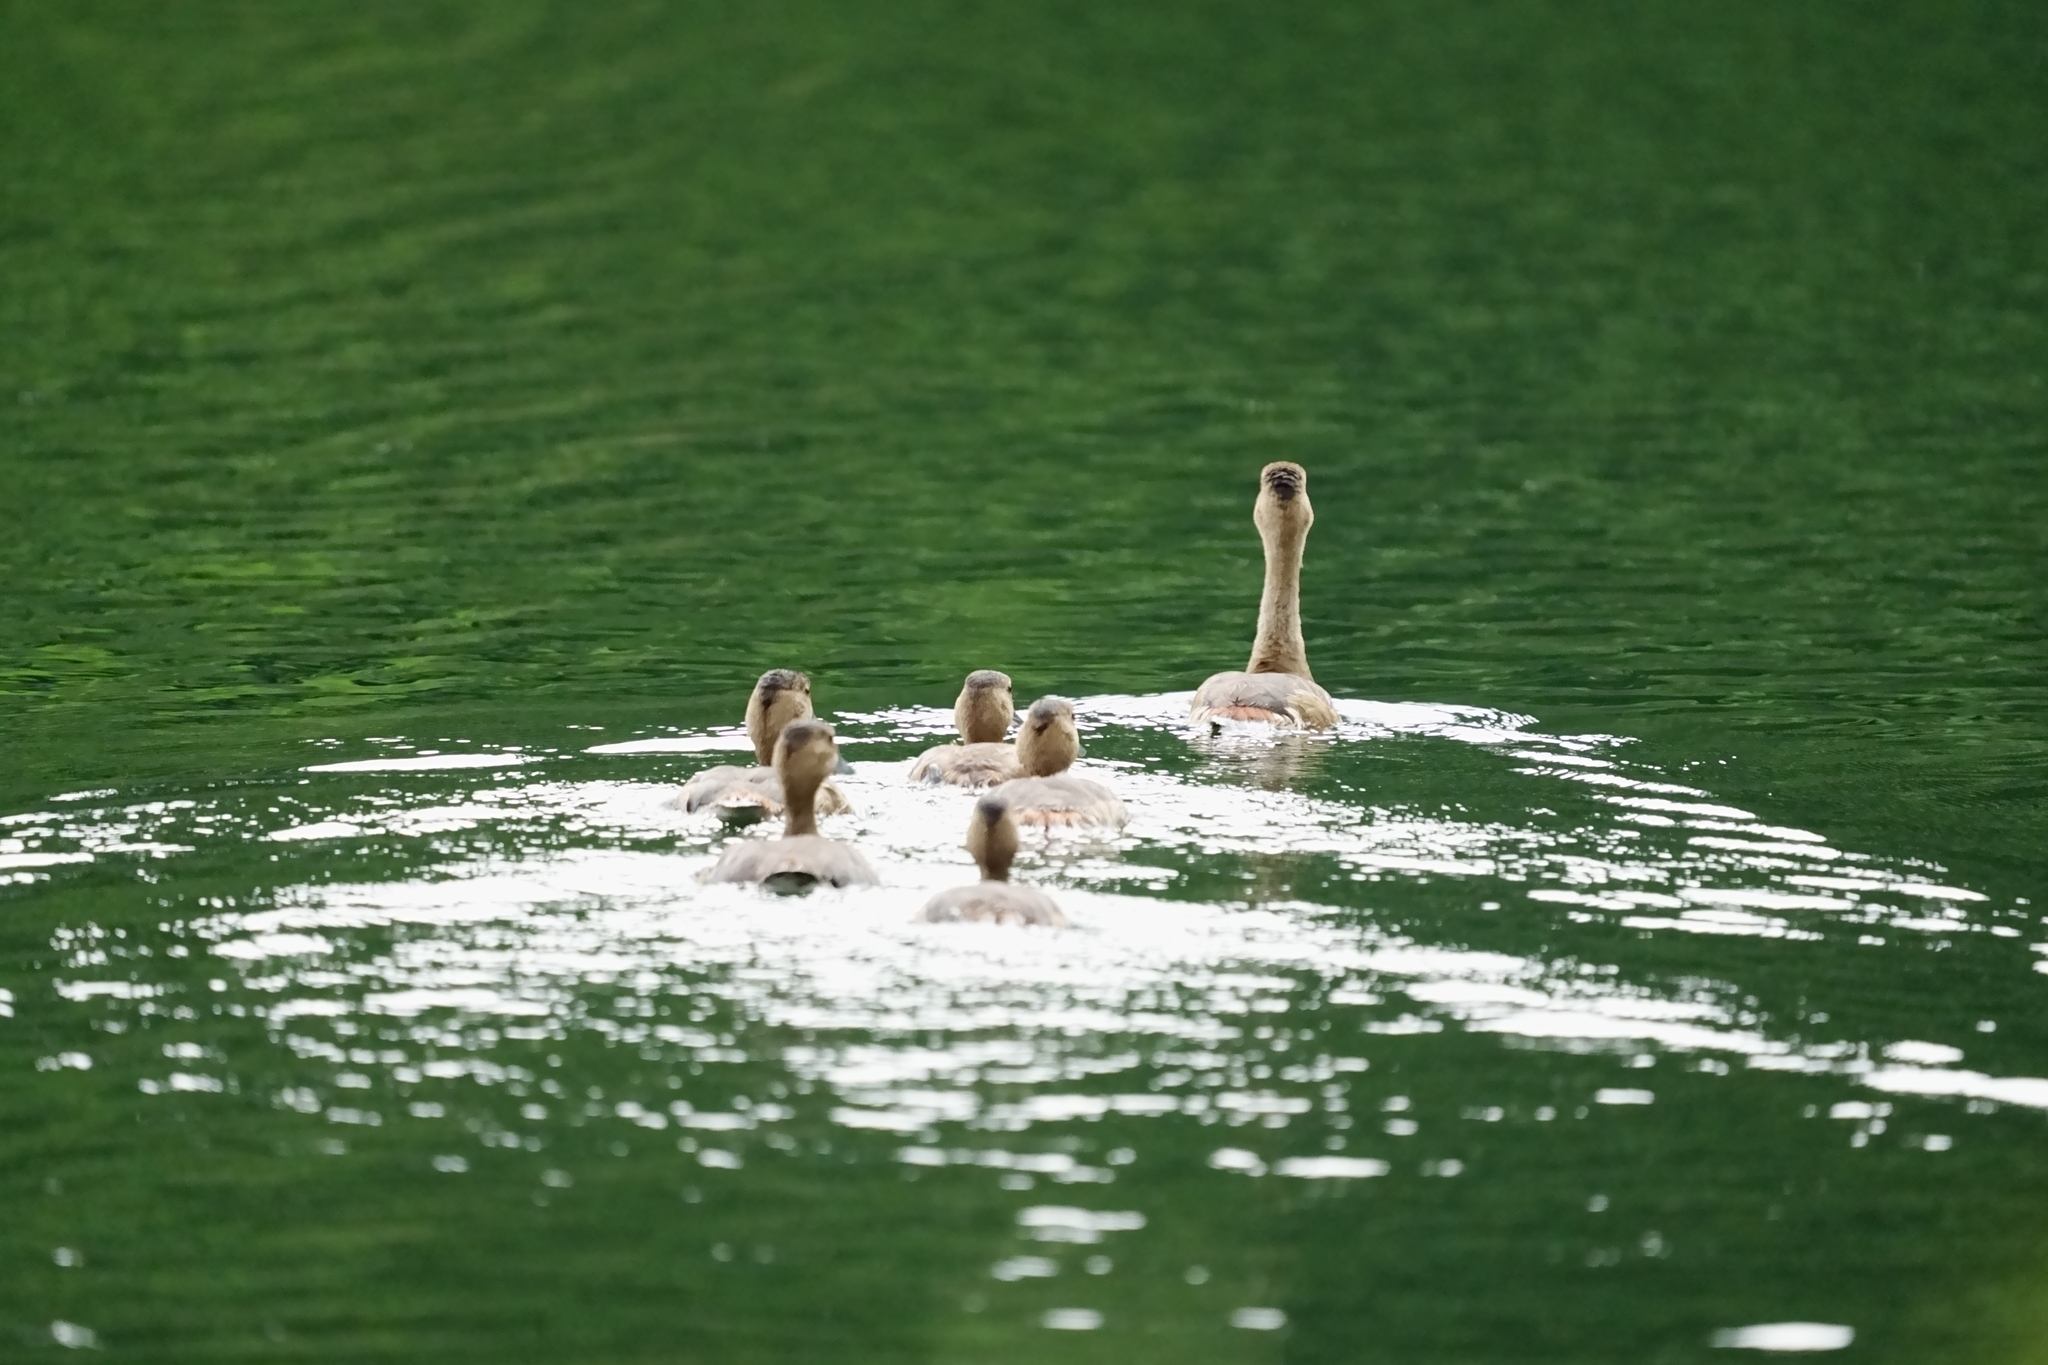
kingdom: Animalia
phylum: Chordata
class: Aves
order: Anseriformes
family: Anatidae
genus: Dendrocygna
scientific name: Dendrocygna javanica
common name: Lesser whistling-duck
